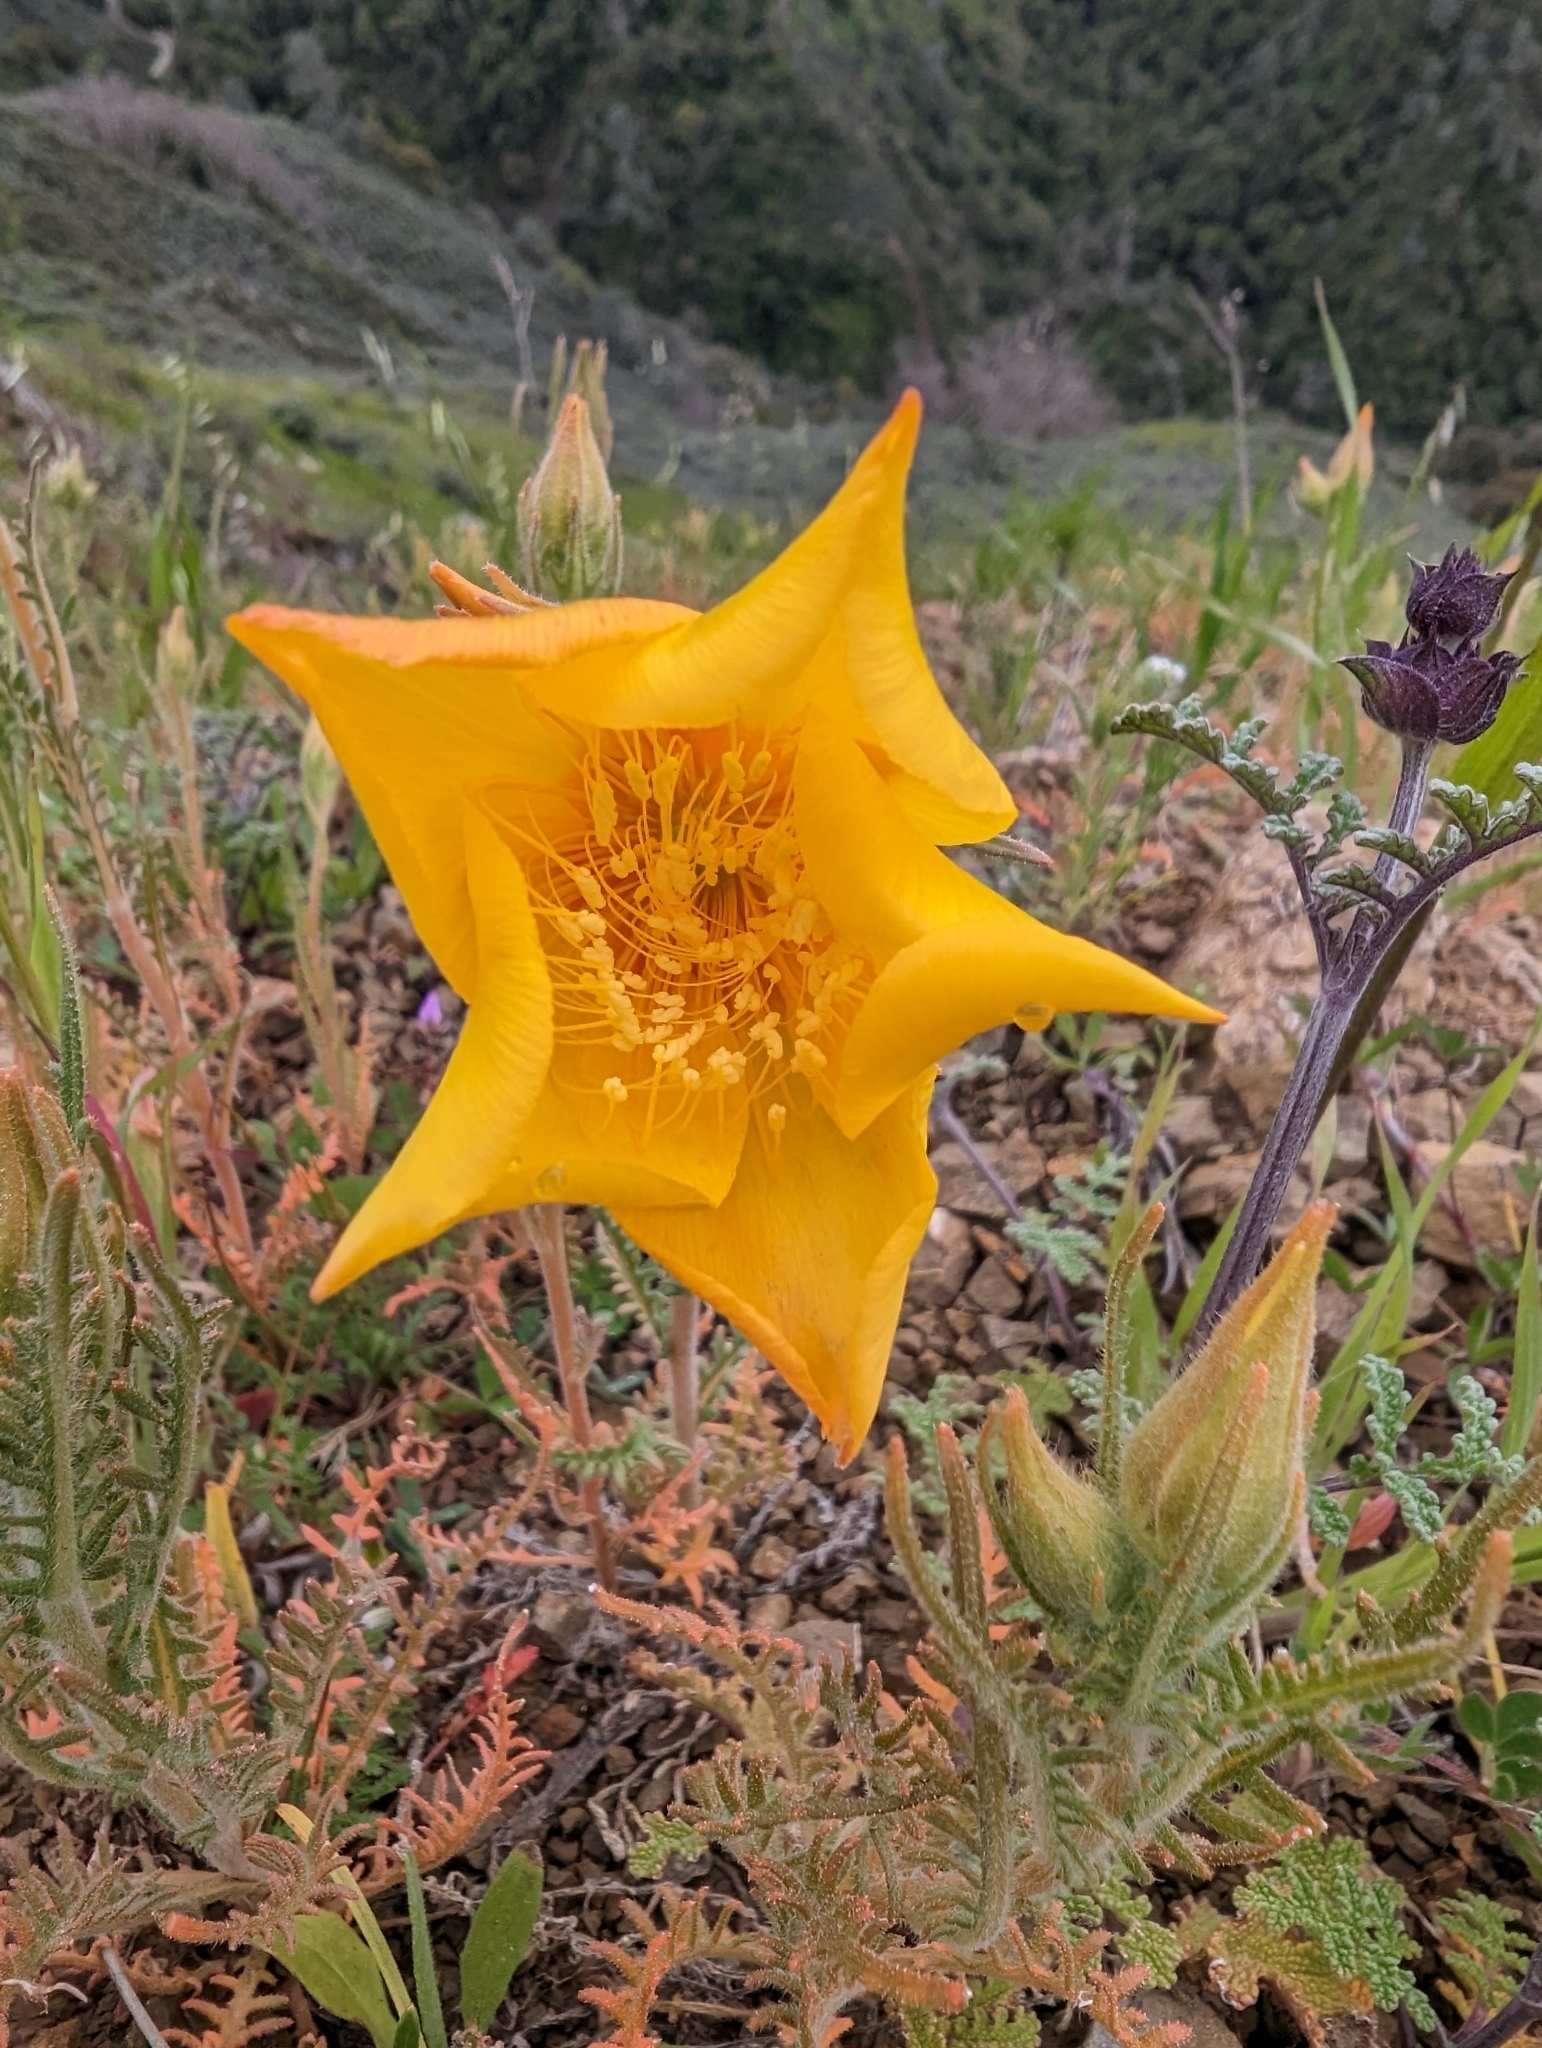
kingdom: Plantae
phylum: Tracheophyta
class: Magnoliopsida
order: Cornales
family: Loasaceae
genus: Mentzelia
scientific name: Mentzelia lindleyi
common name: Golden bartonia
